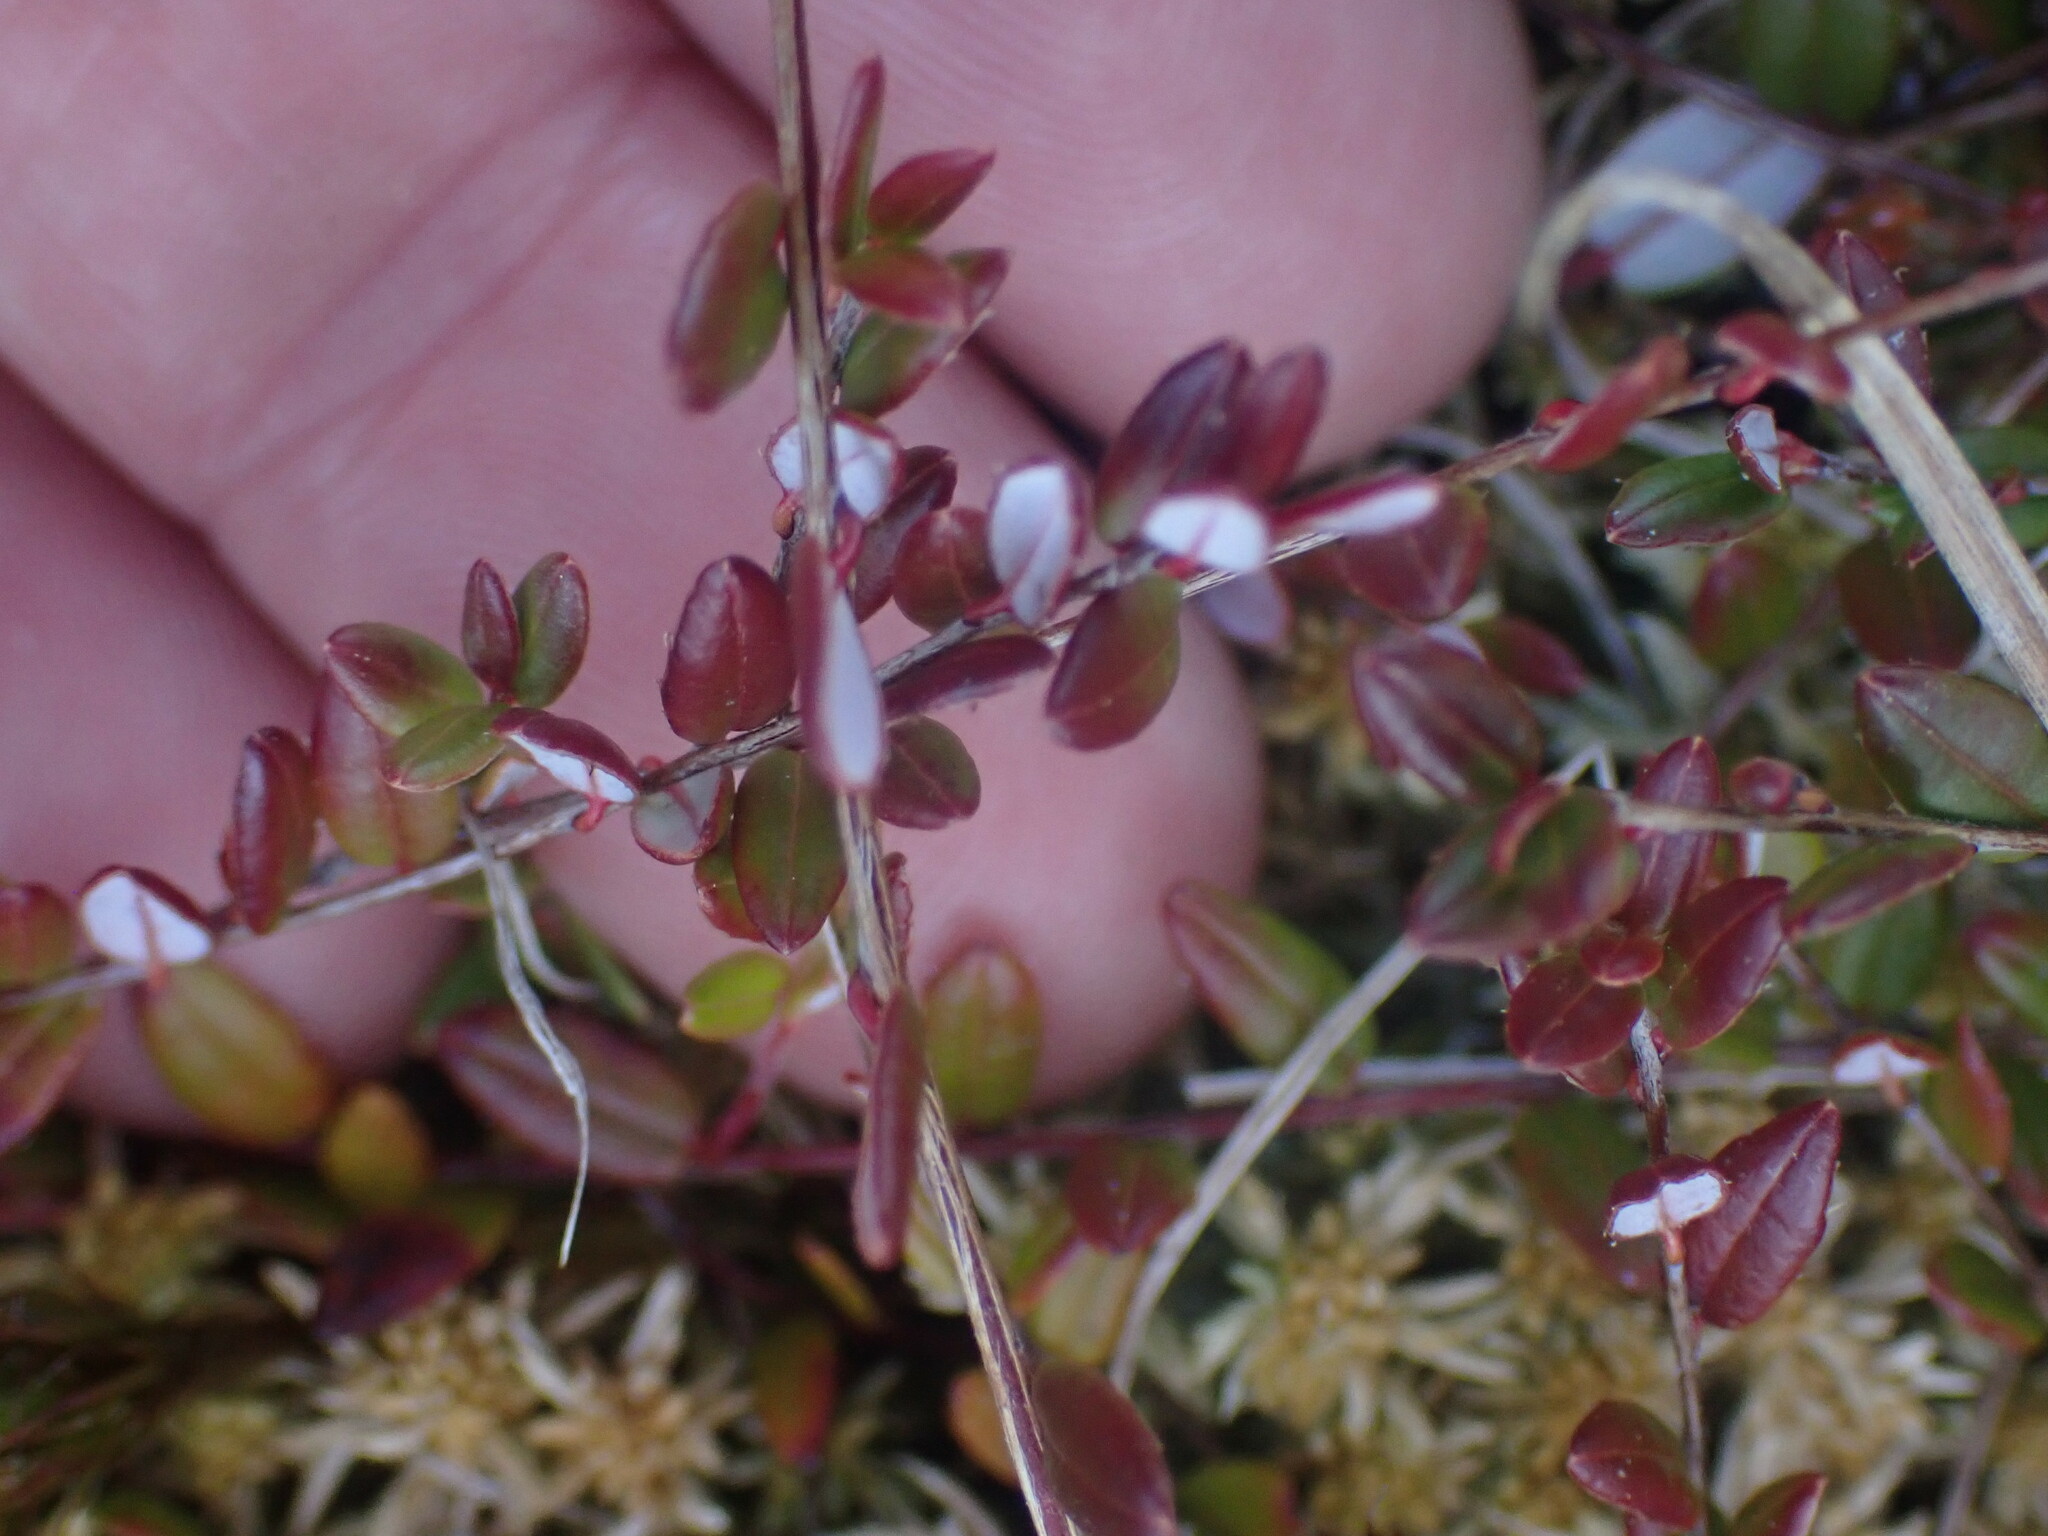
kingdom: Plantae
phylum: Tracheophyta
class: Magnoliopsida
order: Ericales
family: Ericaceae
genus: Vaccinium
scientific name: Vaccinium oxycoccos
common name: Cranberry
